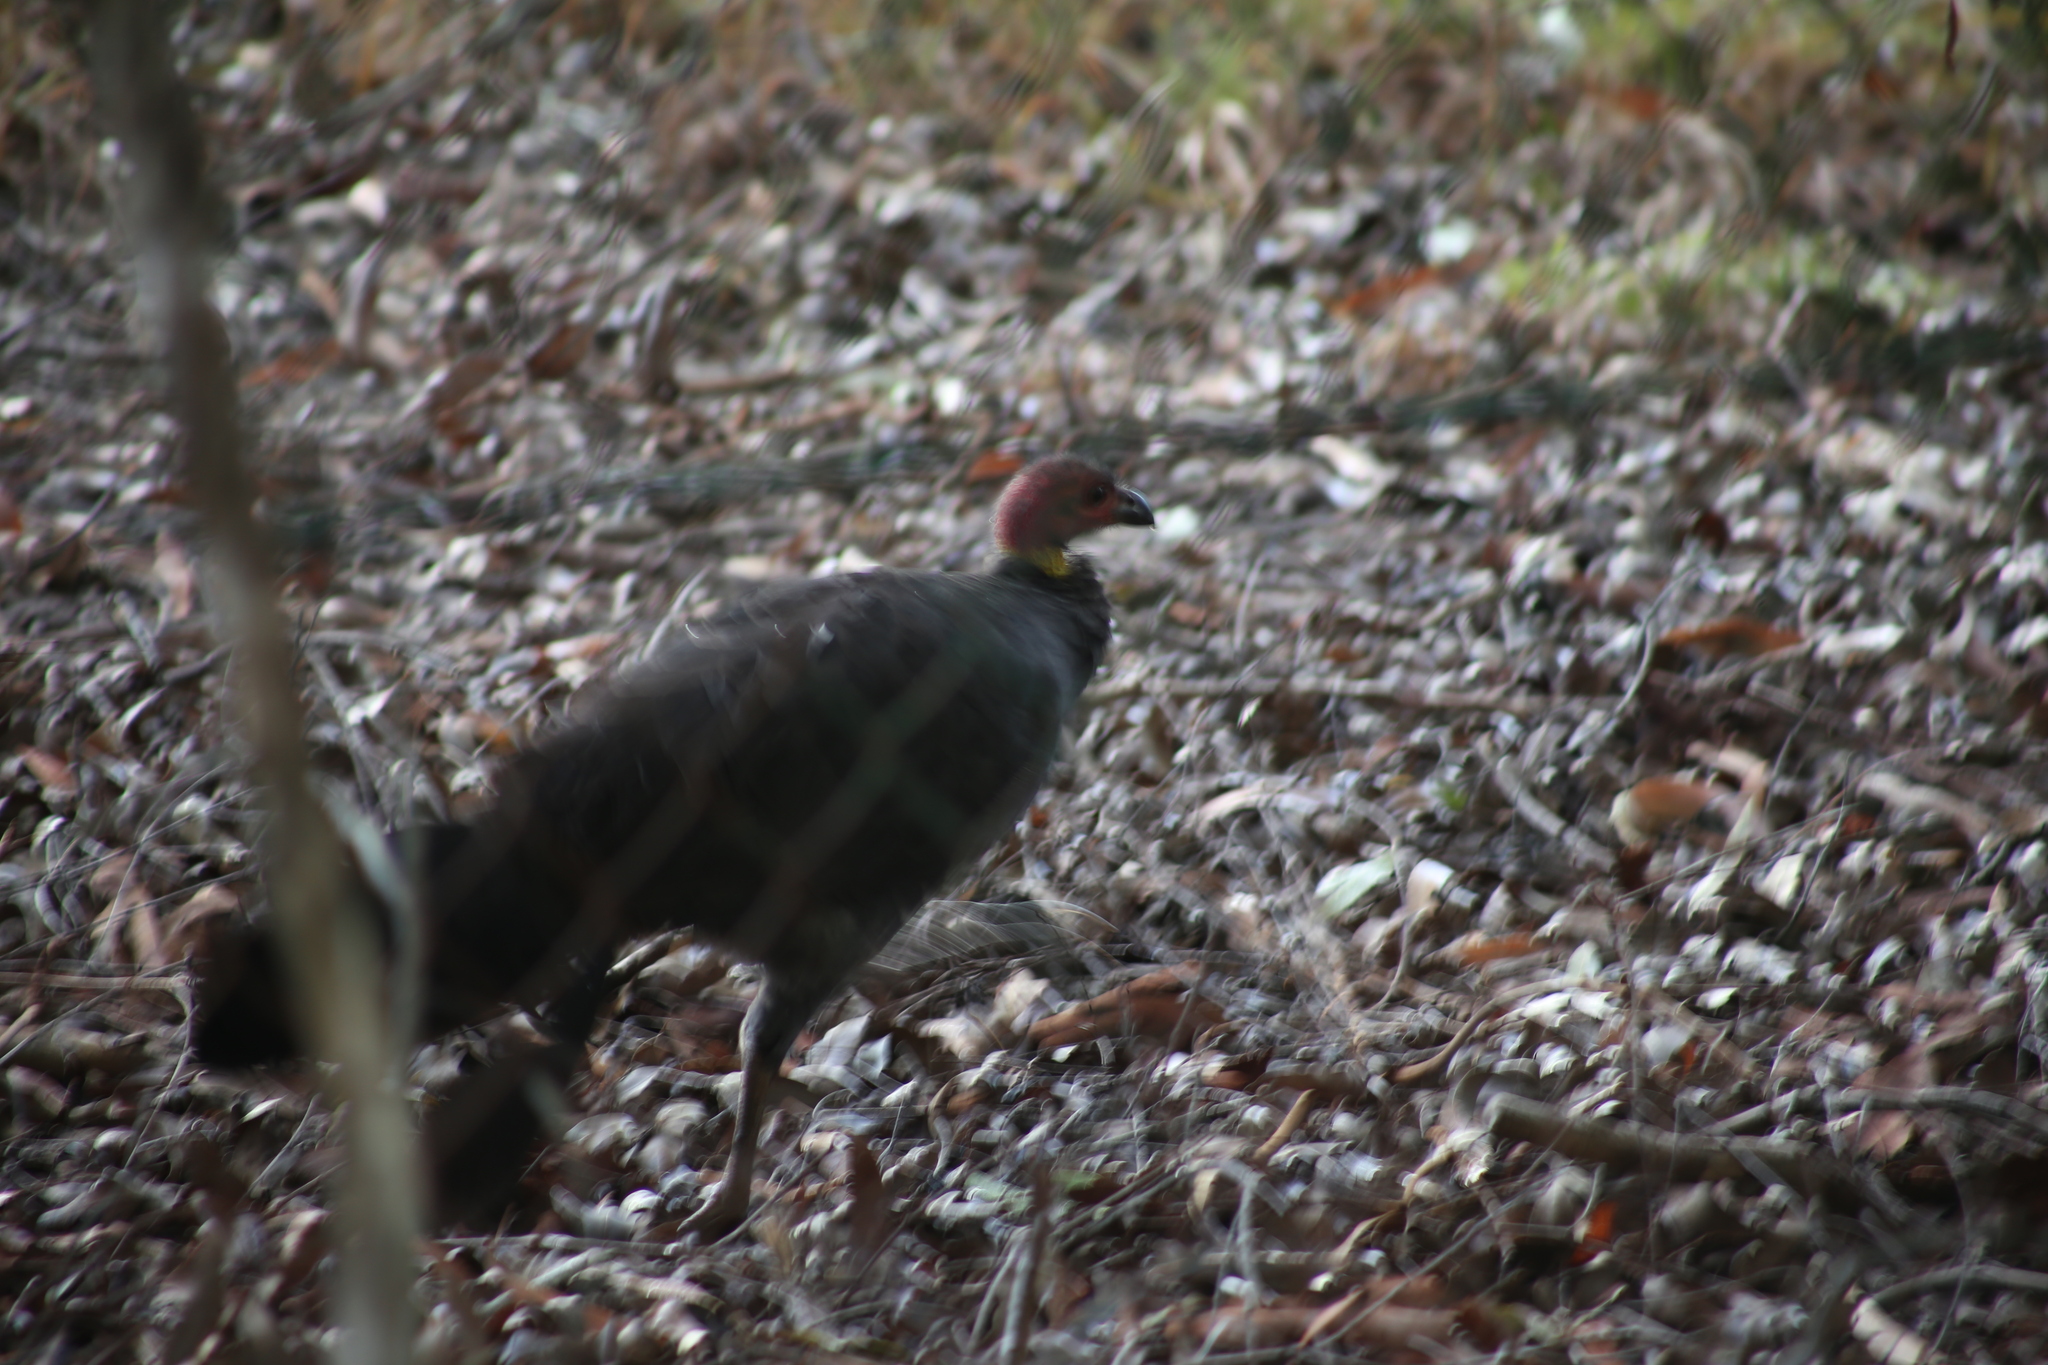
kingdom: Animalia
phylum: Chordata
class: Aves
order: Galliformes
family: Megapodiidae
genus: Alectura
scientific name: Alectura lathami
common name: Australian brushturkey
